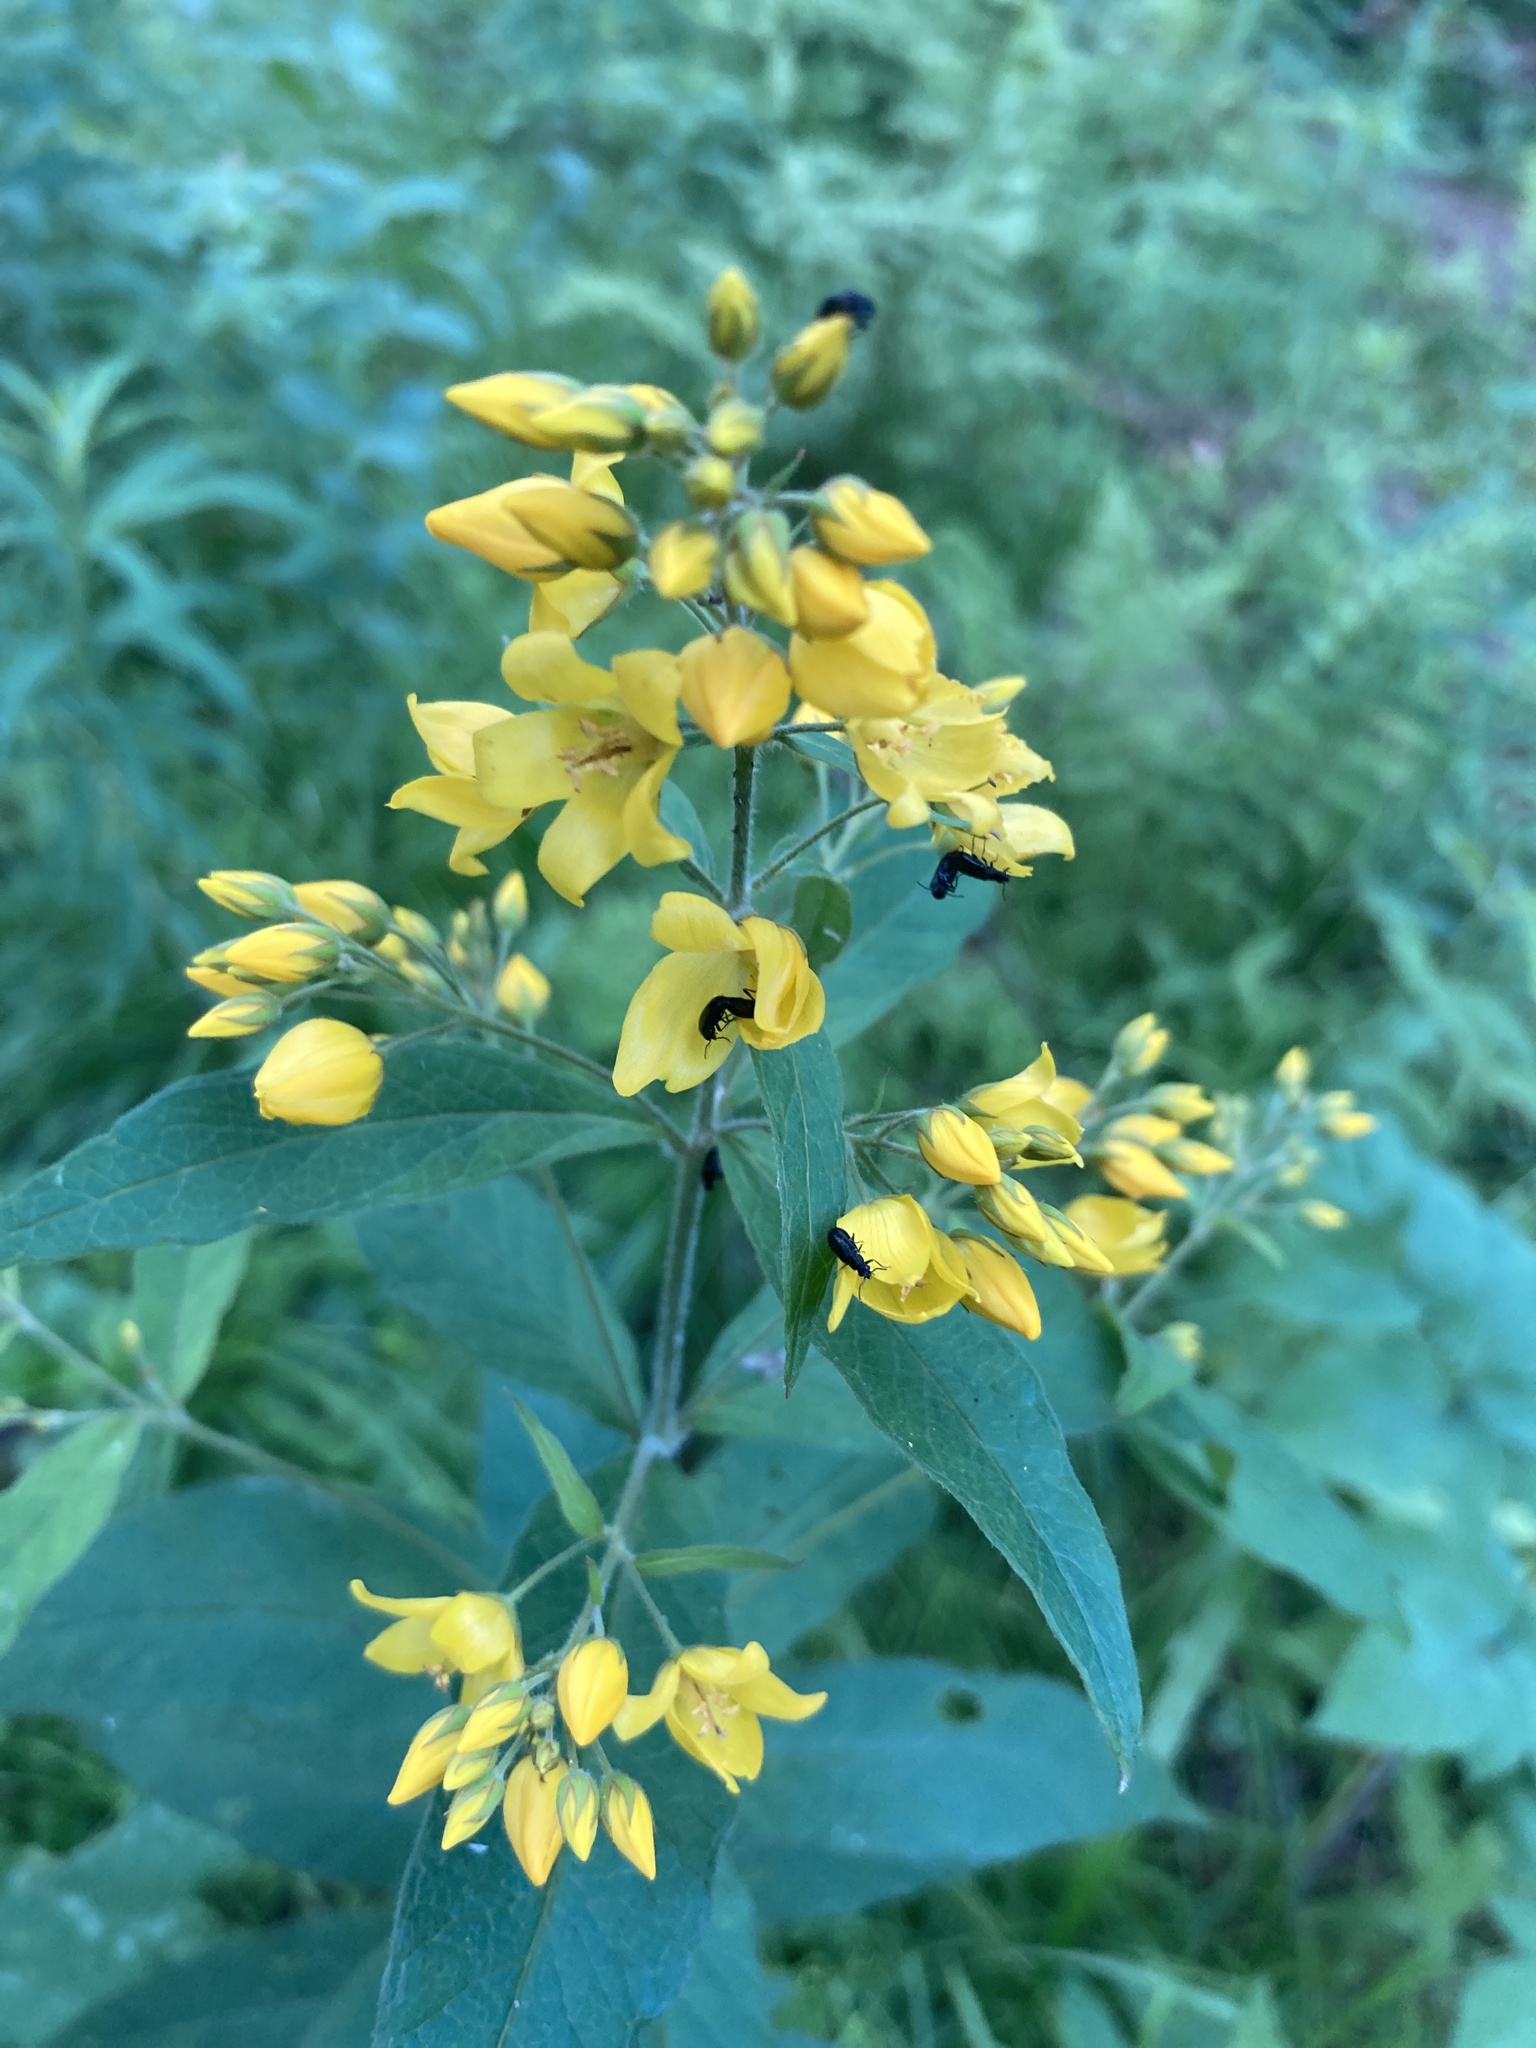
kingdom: Plantae
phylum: Tracheophyta
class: Magnoliopsida
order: Ericales
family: Primulaceae
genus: Lysimachia
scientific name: Lysimachia vulgaris
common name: Yellow loosestrife
